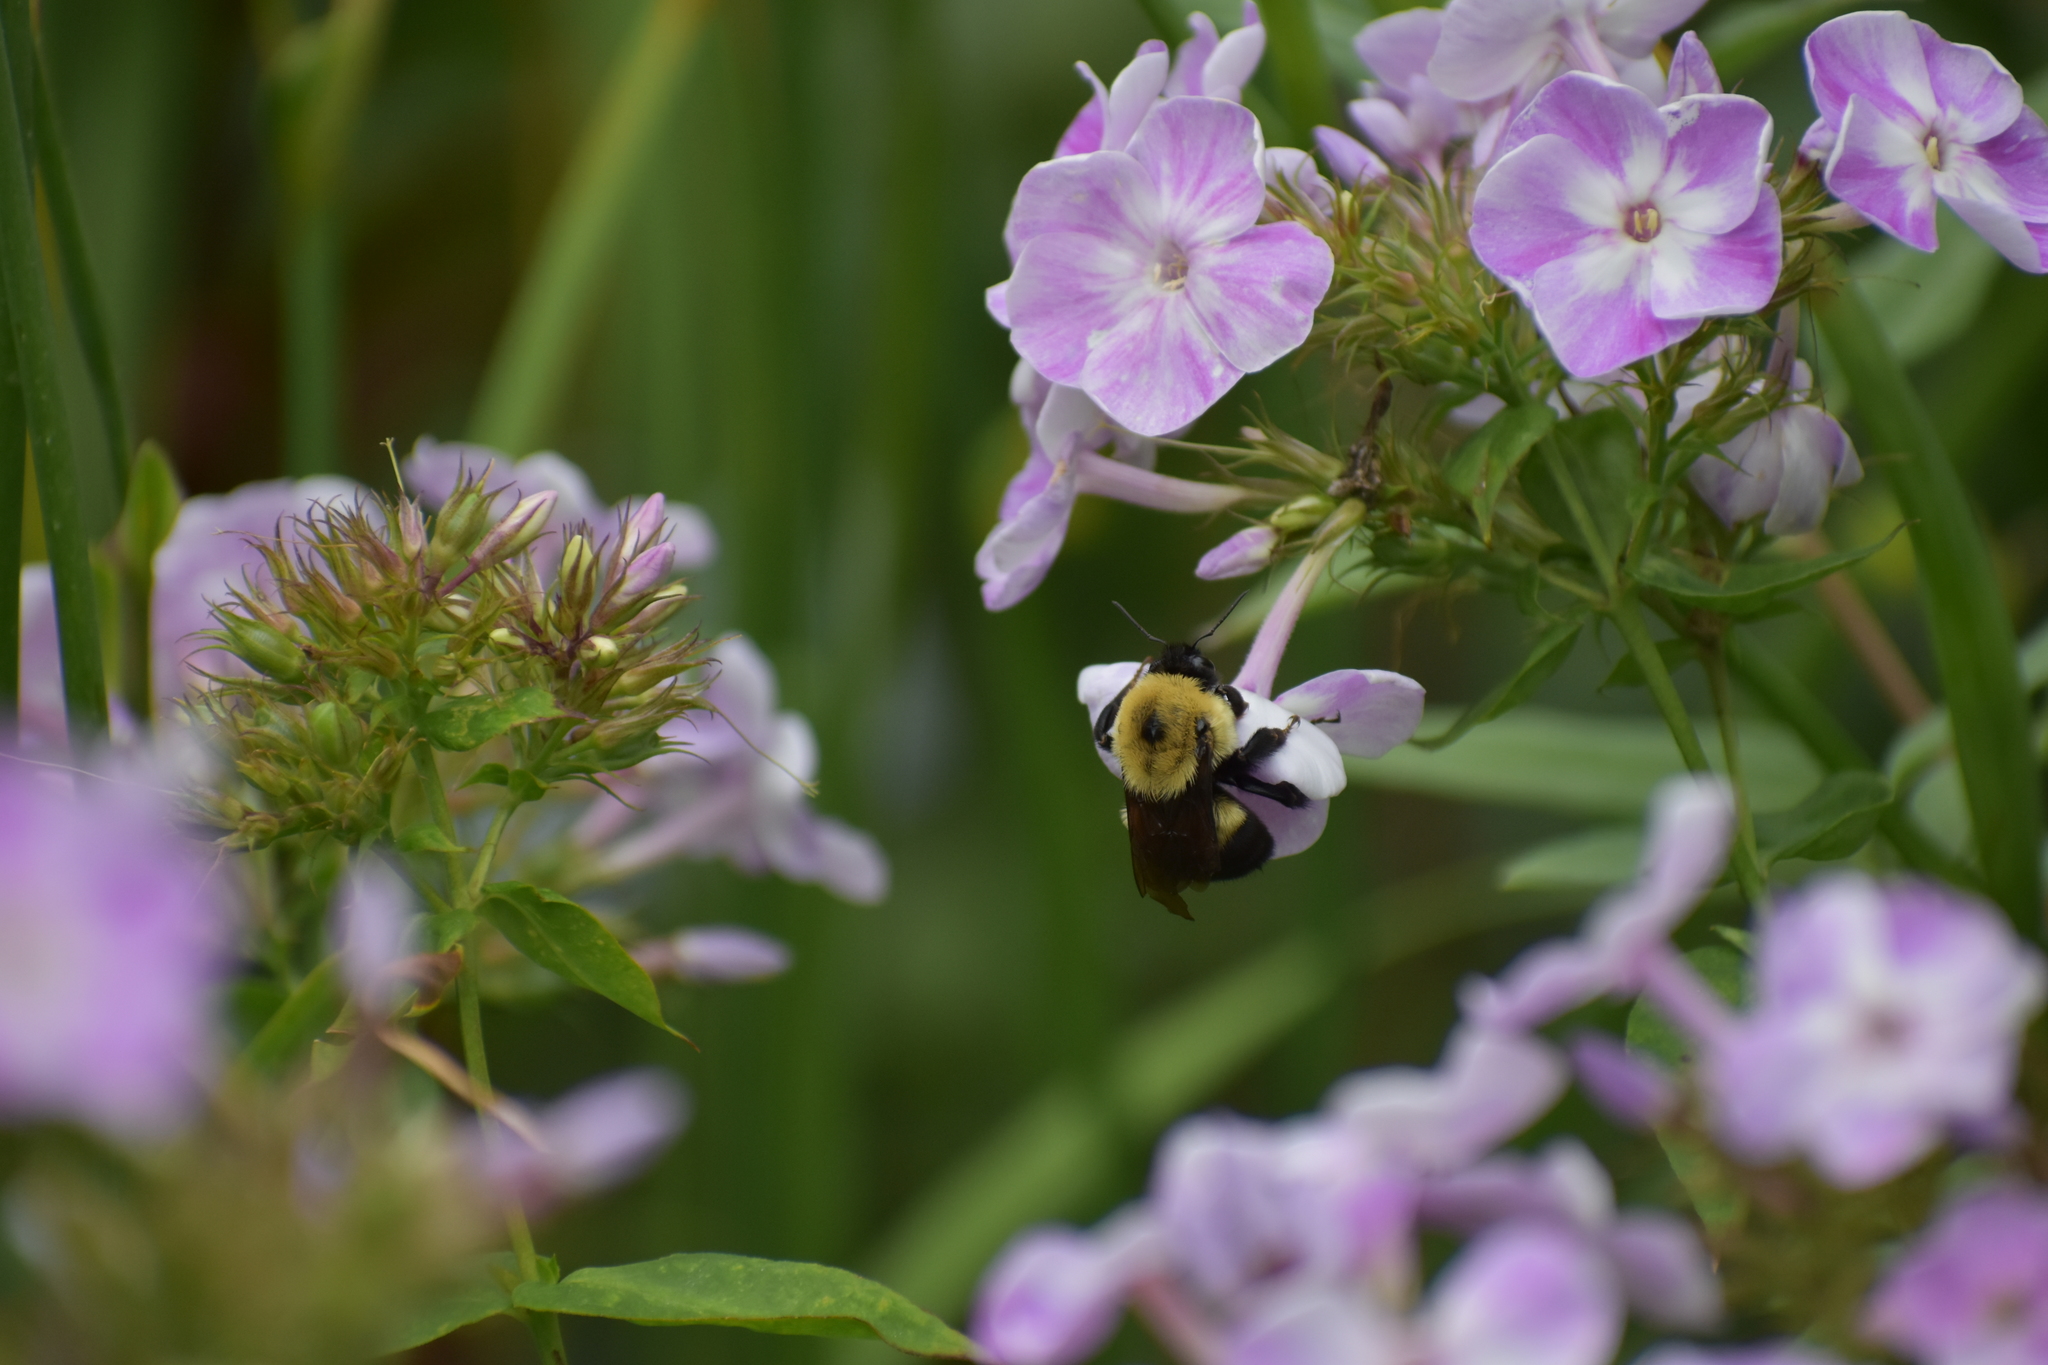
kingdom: Animalia
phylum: Arthropoda
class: Insecta
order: Hymenoptera
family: Apidae
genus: Bombus
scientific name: Bombus griseocollis
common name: Brown-belted bumble bee
